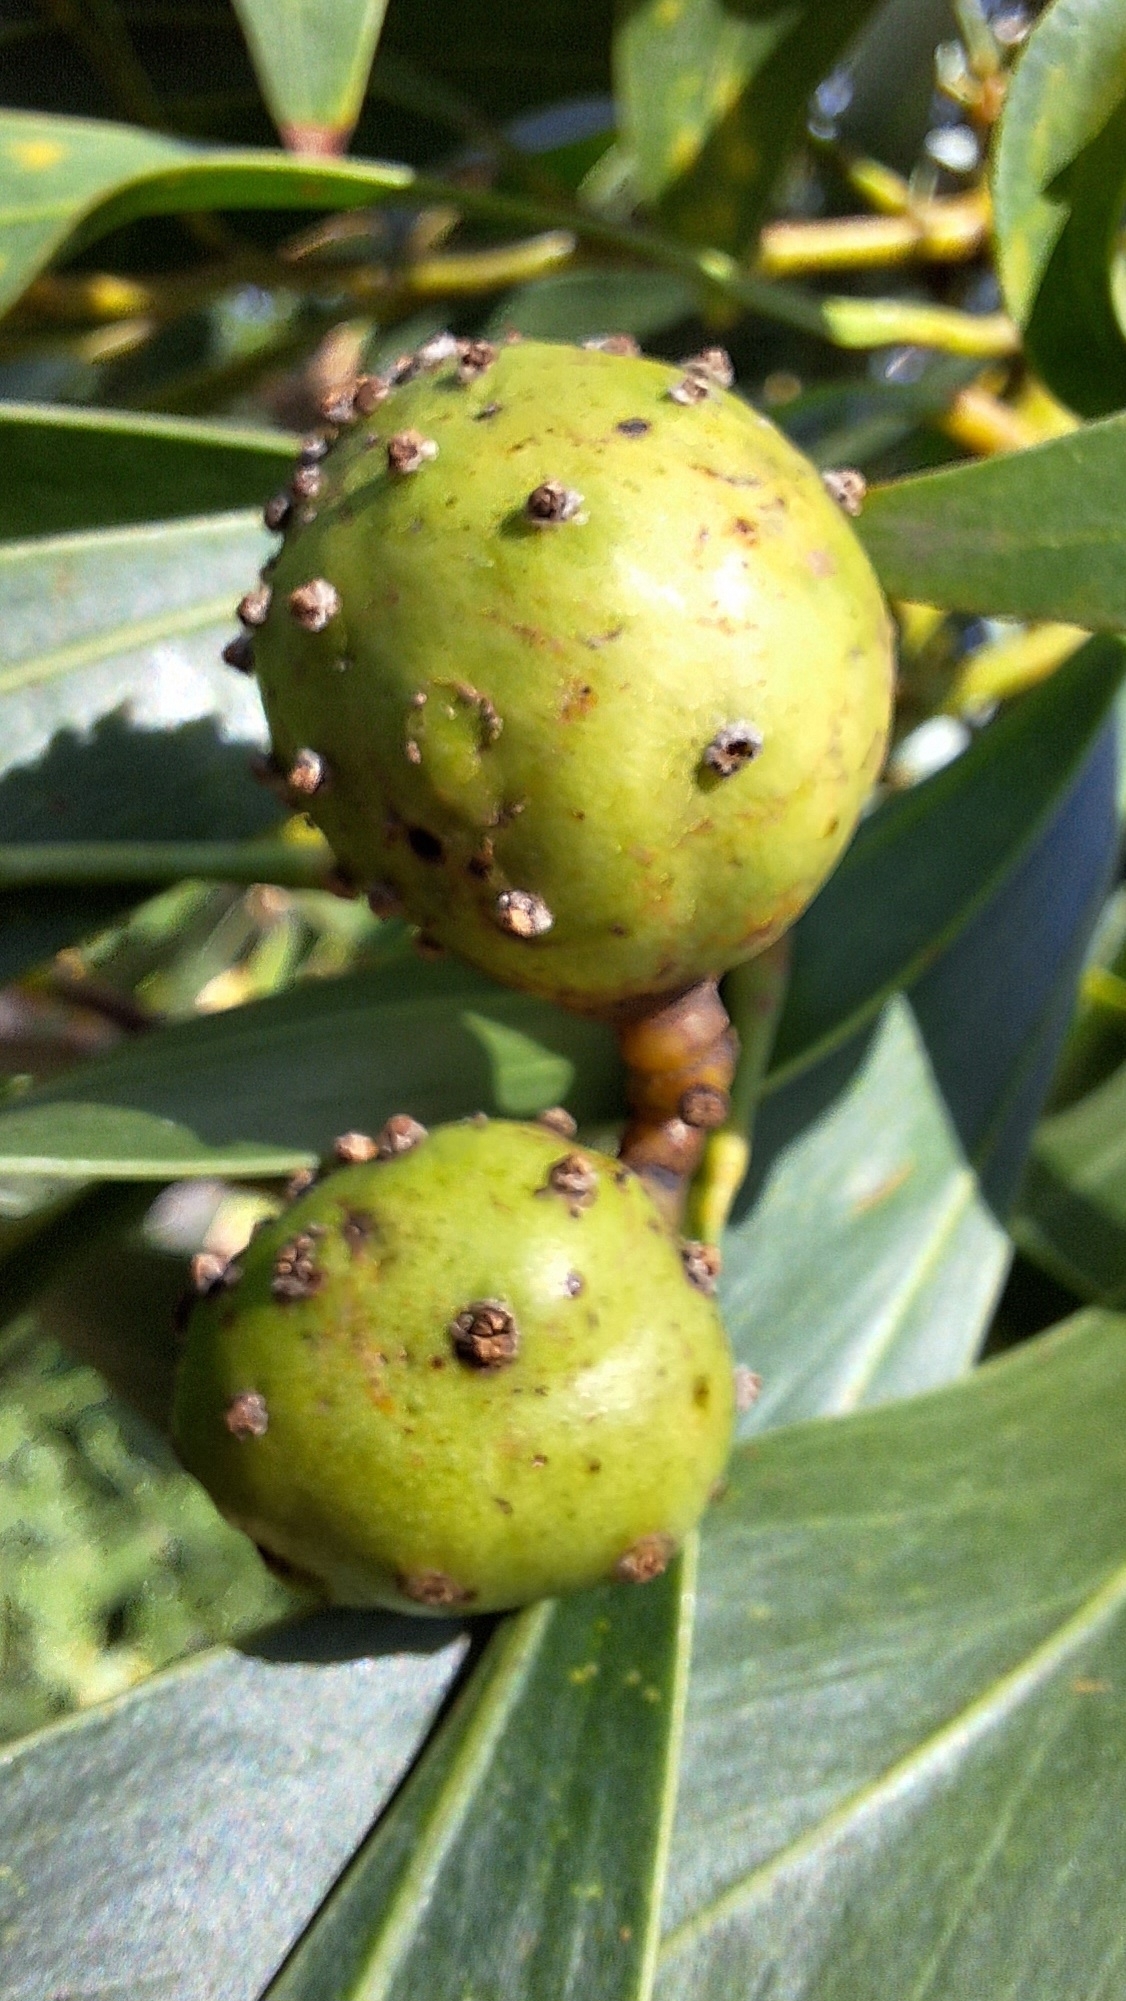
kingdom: Animalia
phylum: Arthropoda
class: Insecta
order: Hymenoptera
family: Pteromalidae
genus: Trichilogaster
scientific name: Trichilogaster signiventris
